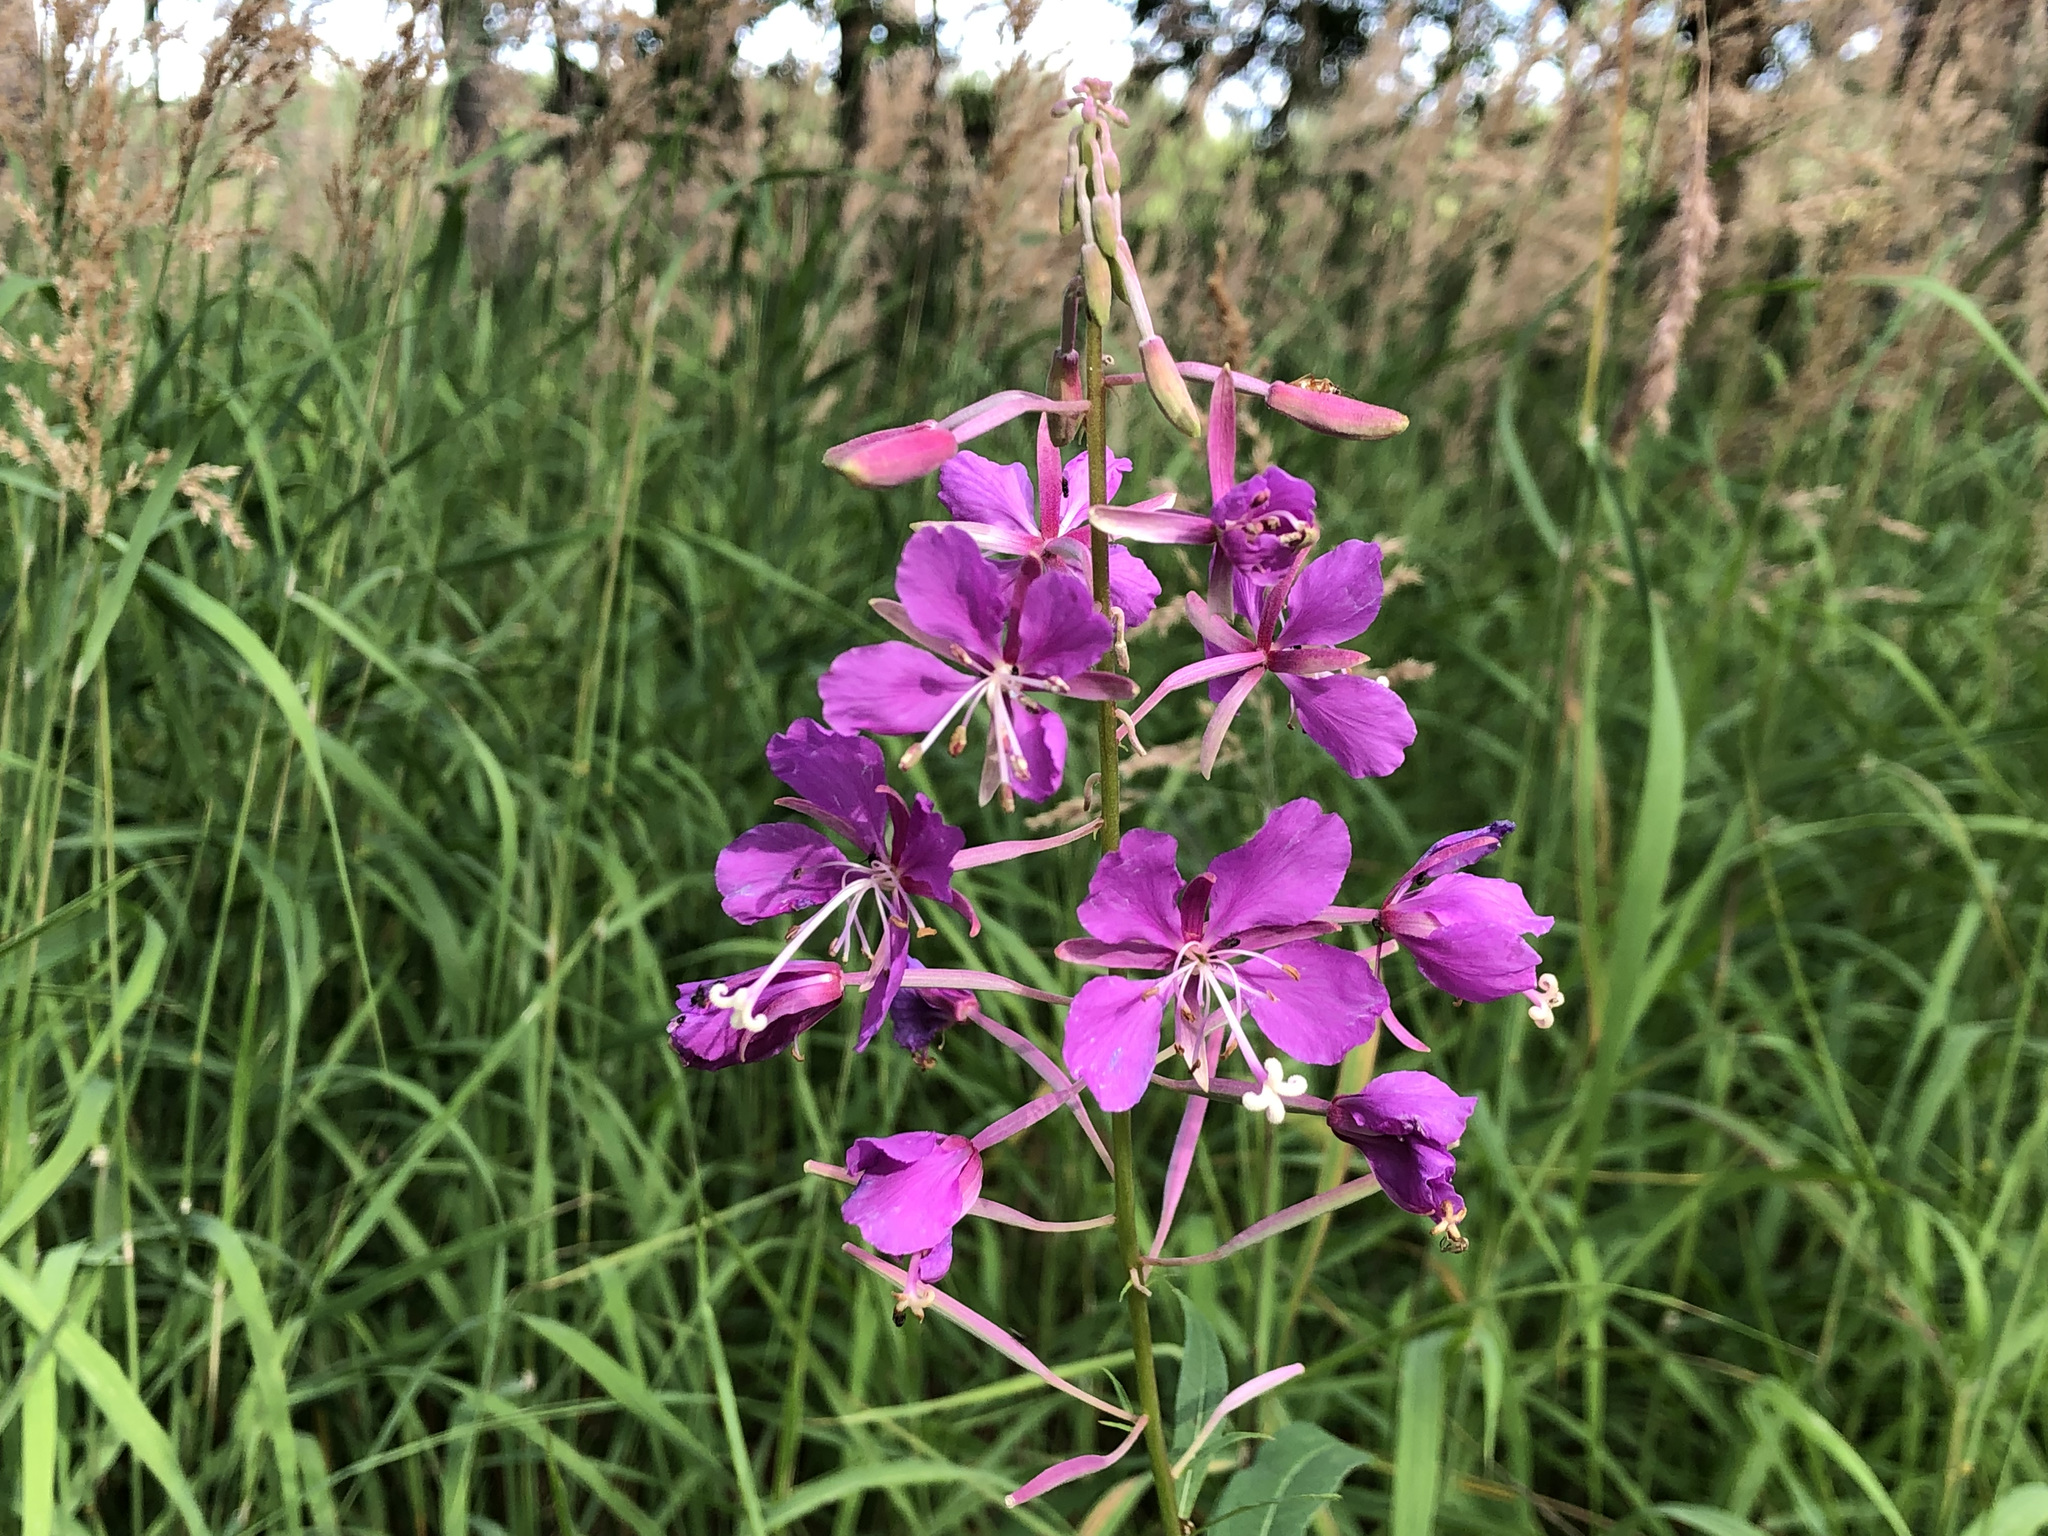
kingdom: Plantae
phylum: Tracheophyta
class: Magnoliopsida
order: Myrtales
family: Onagraceae
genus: Chamaenerion
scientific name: Chamaenerion angustifolium
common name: Fireweed
